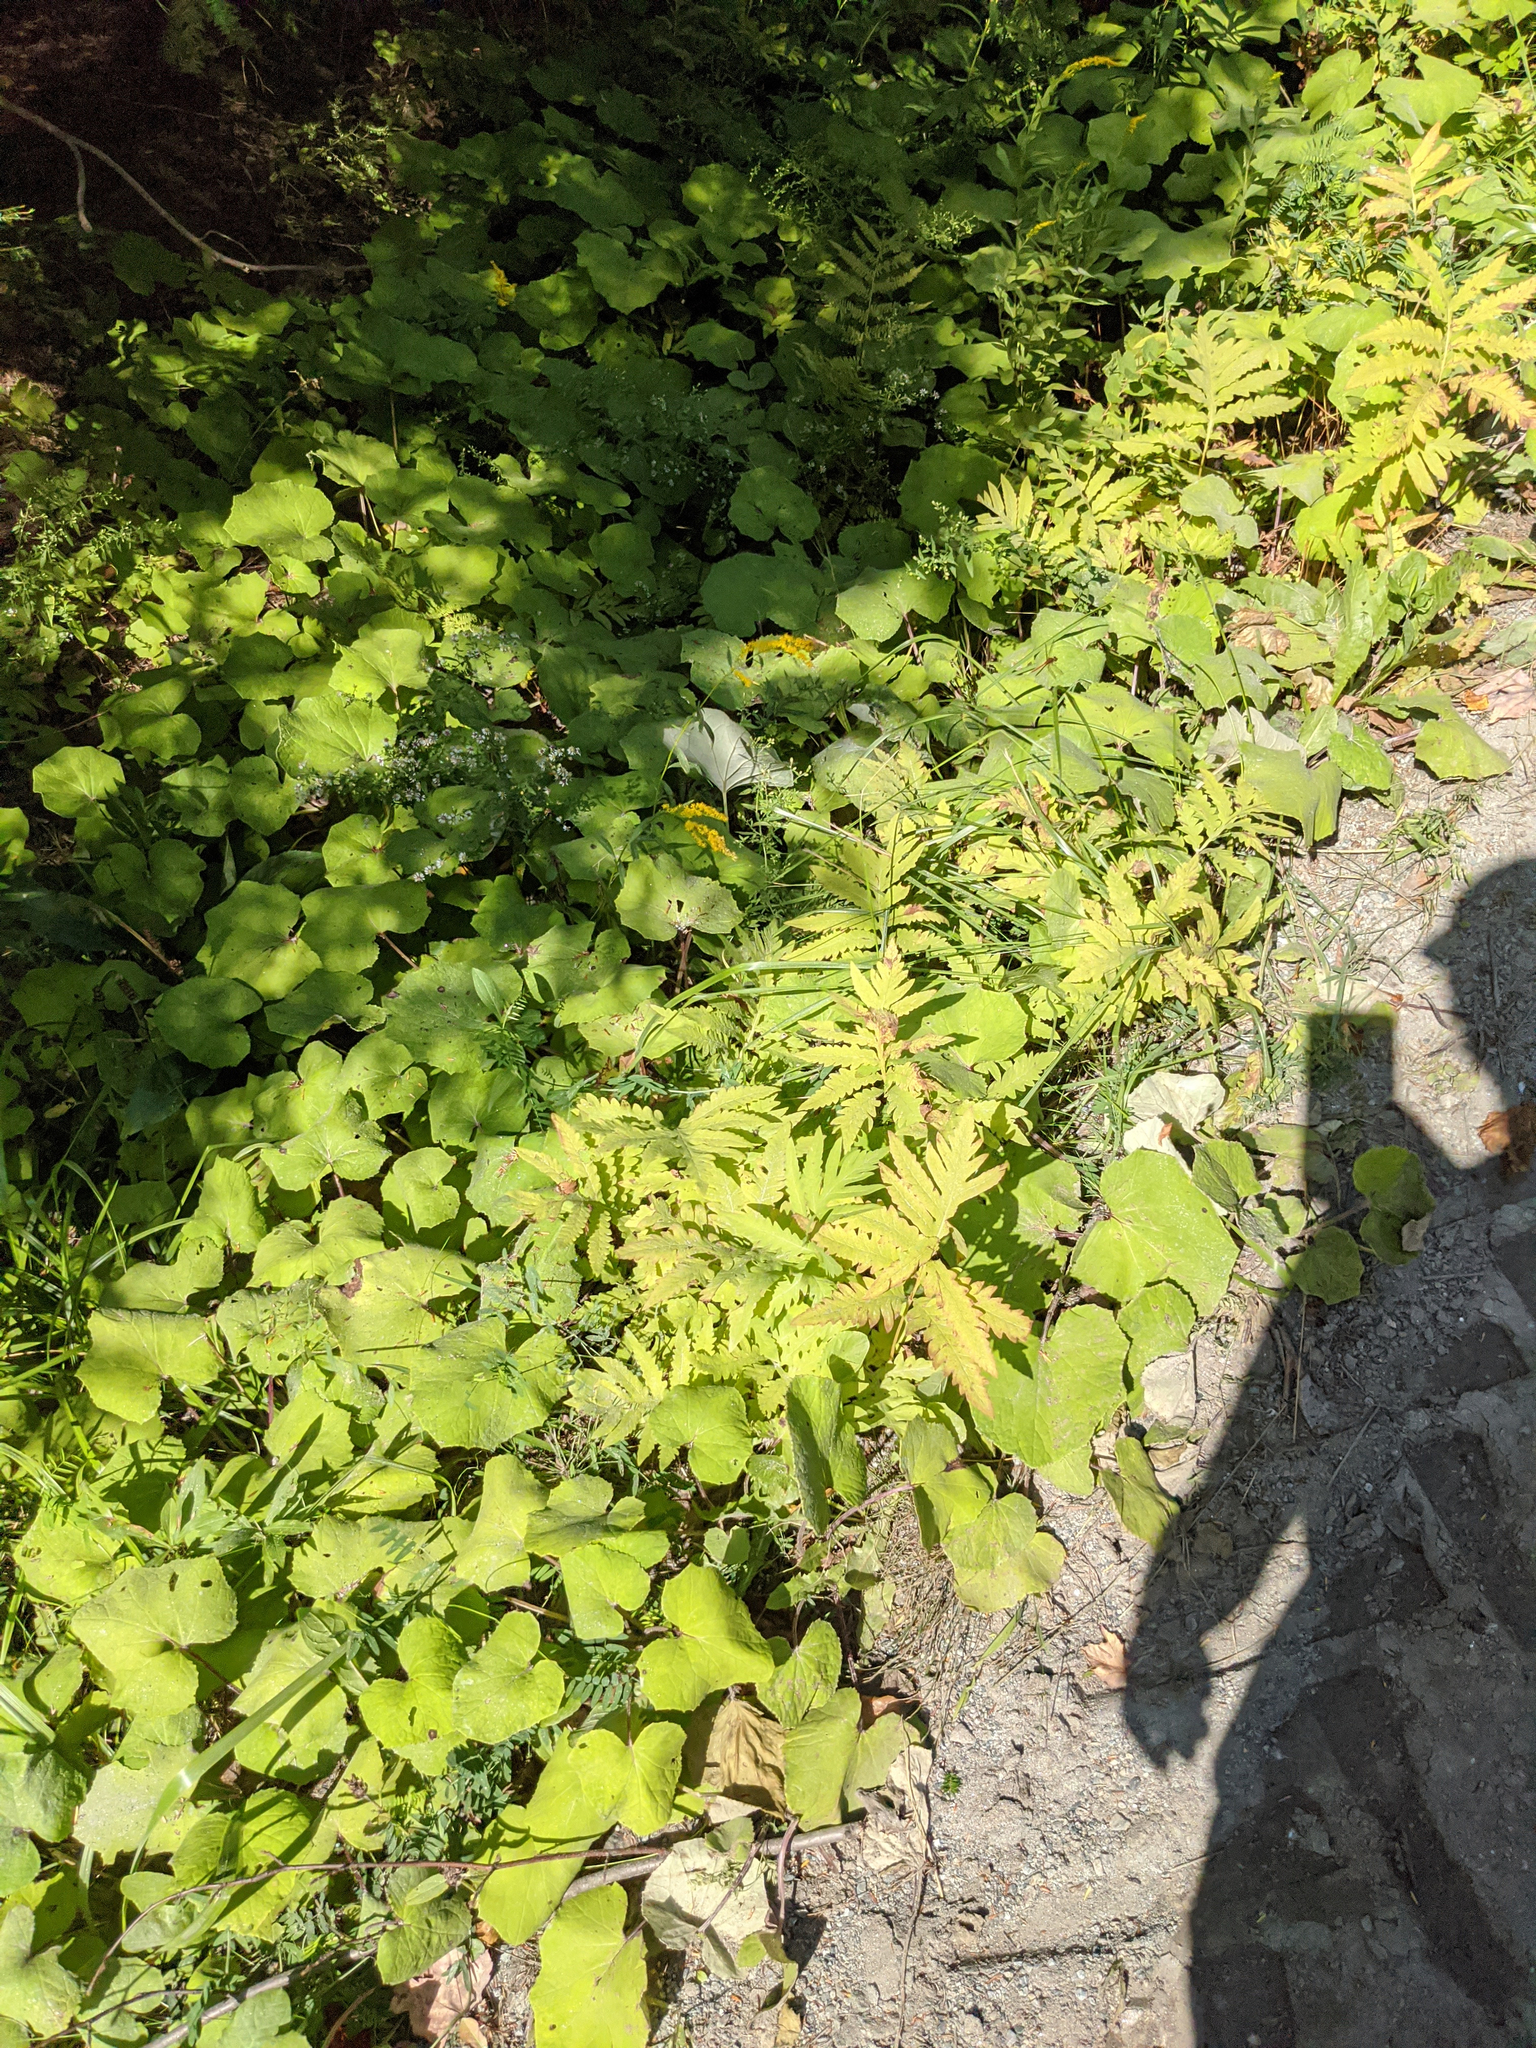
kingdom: Plantae
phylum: Tracheophyta
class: Magnoliopsida
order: Asterales
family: Asteraceae
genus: Tussilago
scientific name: Tussilago farfara
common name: Coltsfoot
